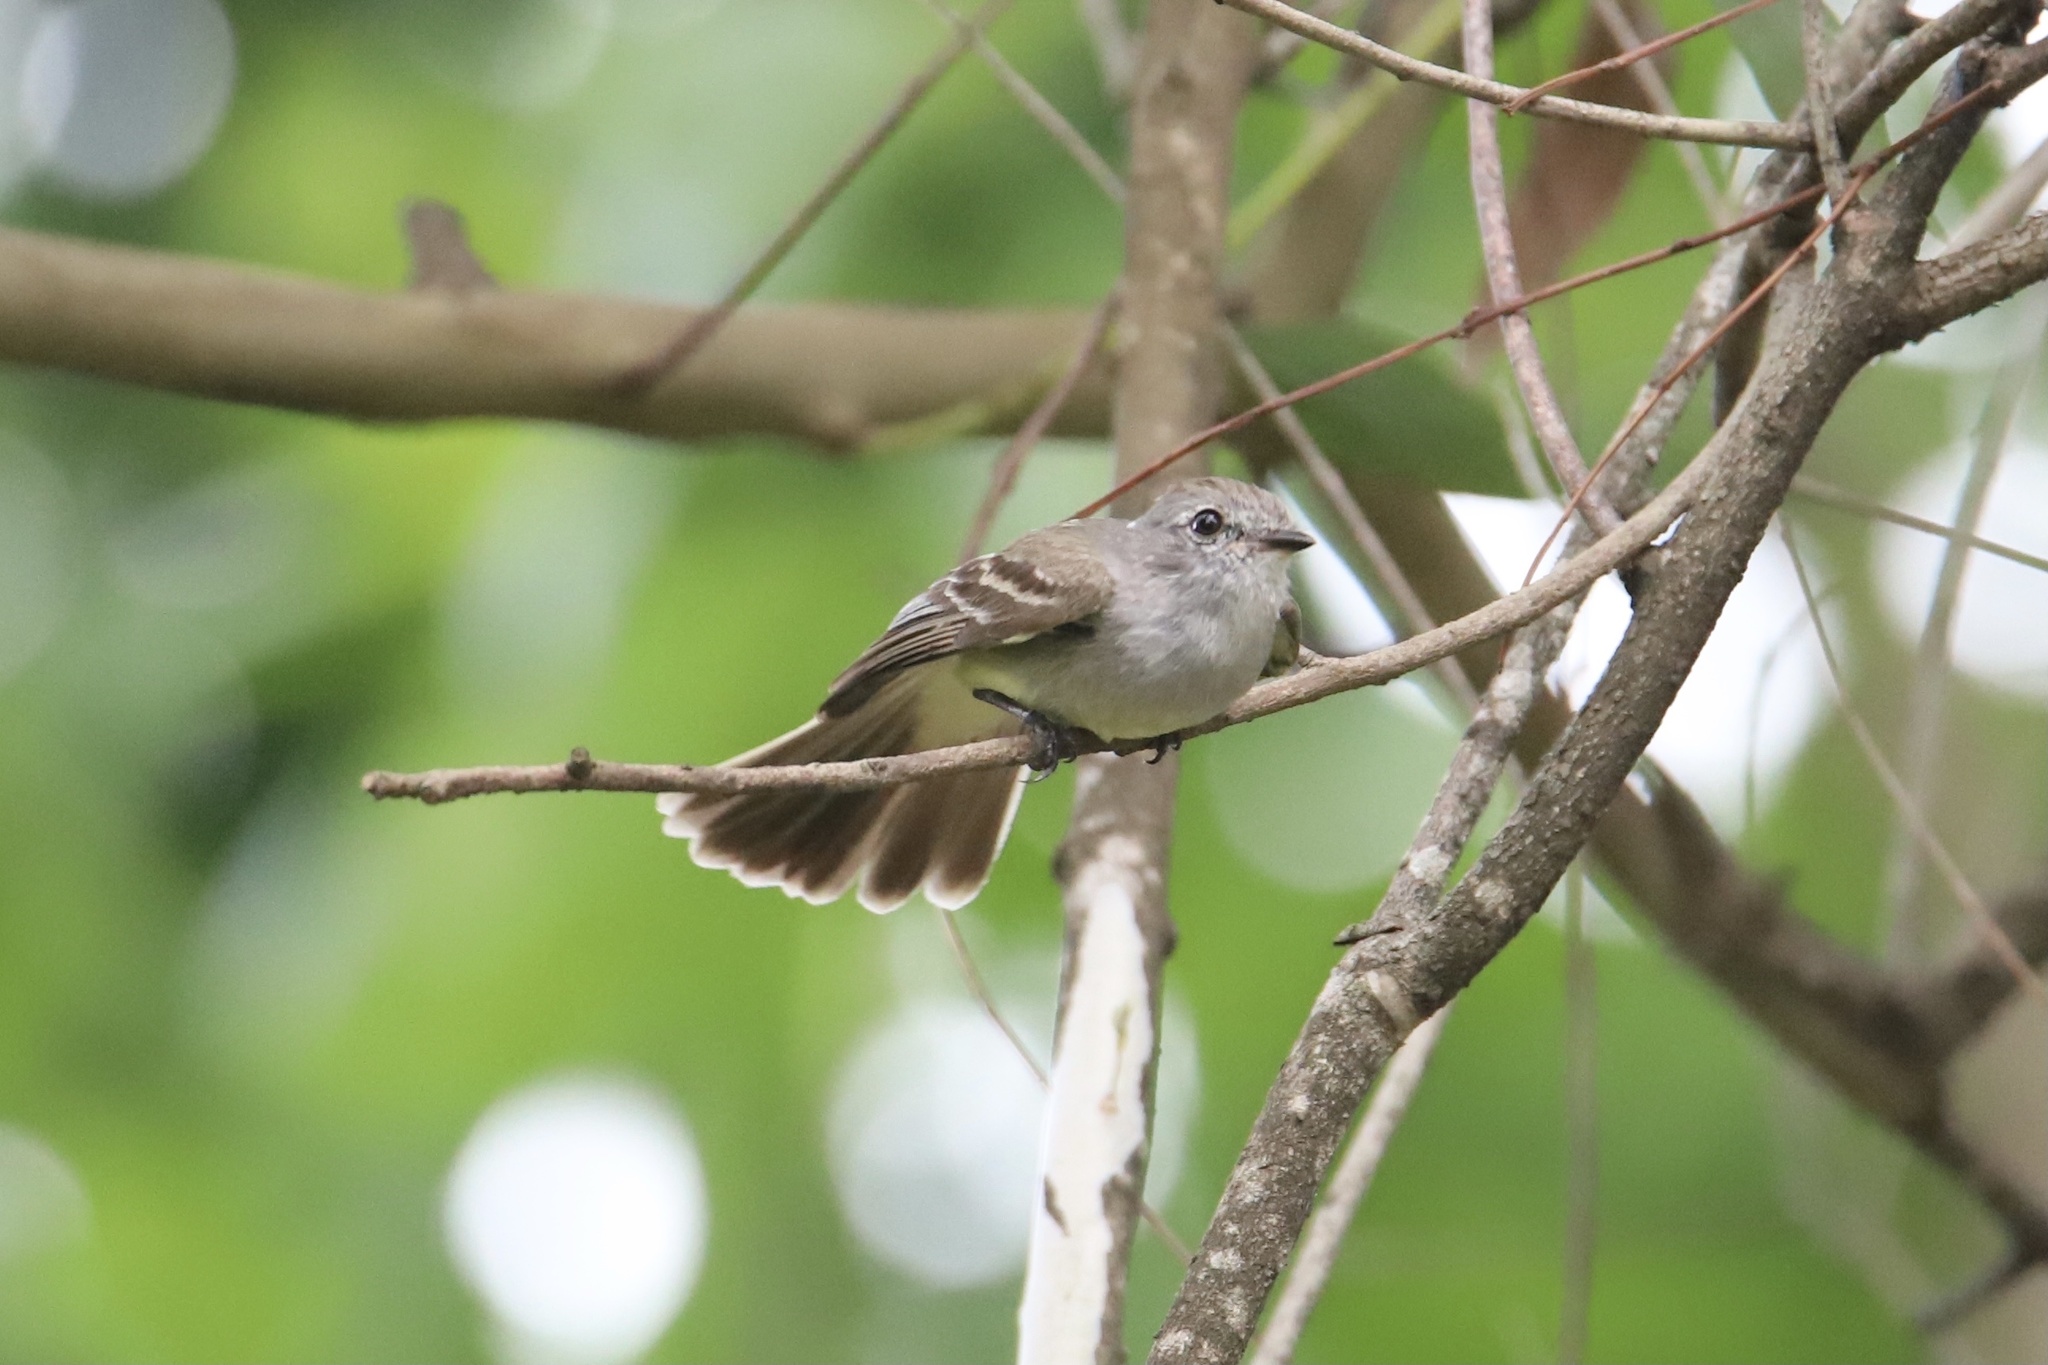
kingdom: Animalia
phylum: Chordata
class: Aves
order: Passeriformes
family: Tyrannidae
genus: Sublegatus
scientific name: Sublegatus arenarum
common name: Northern scrub-flycatcher
